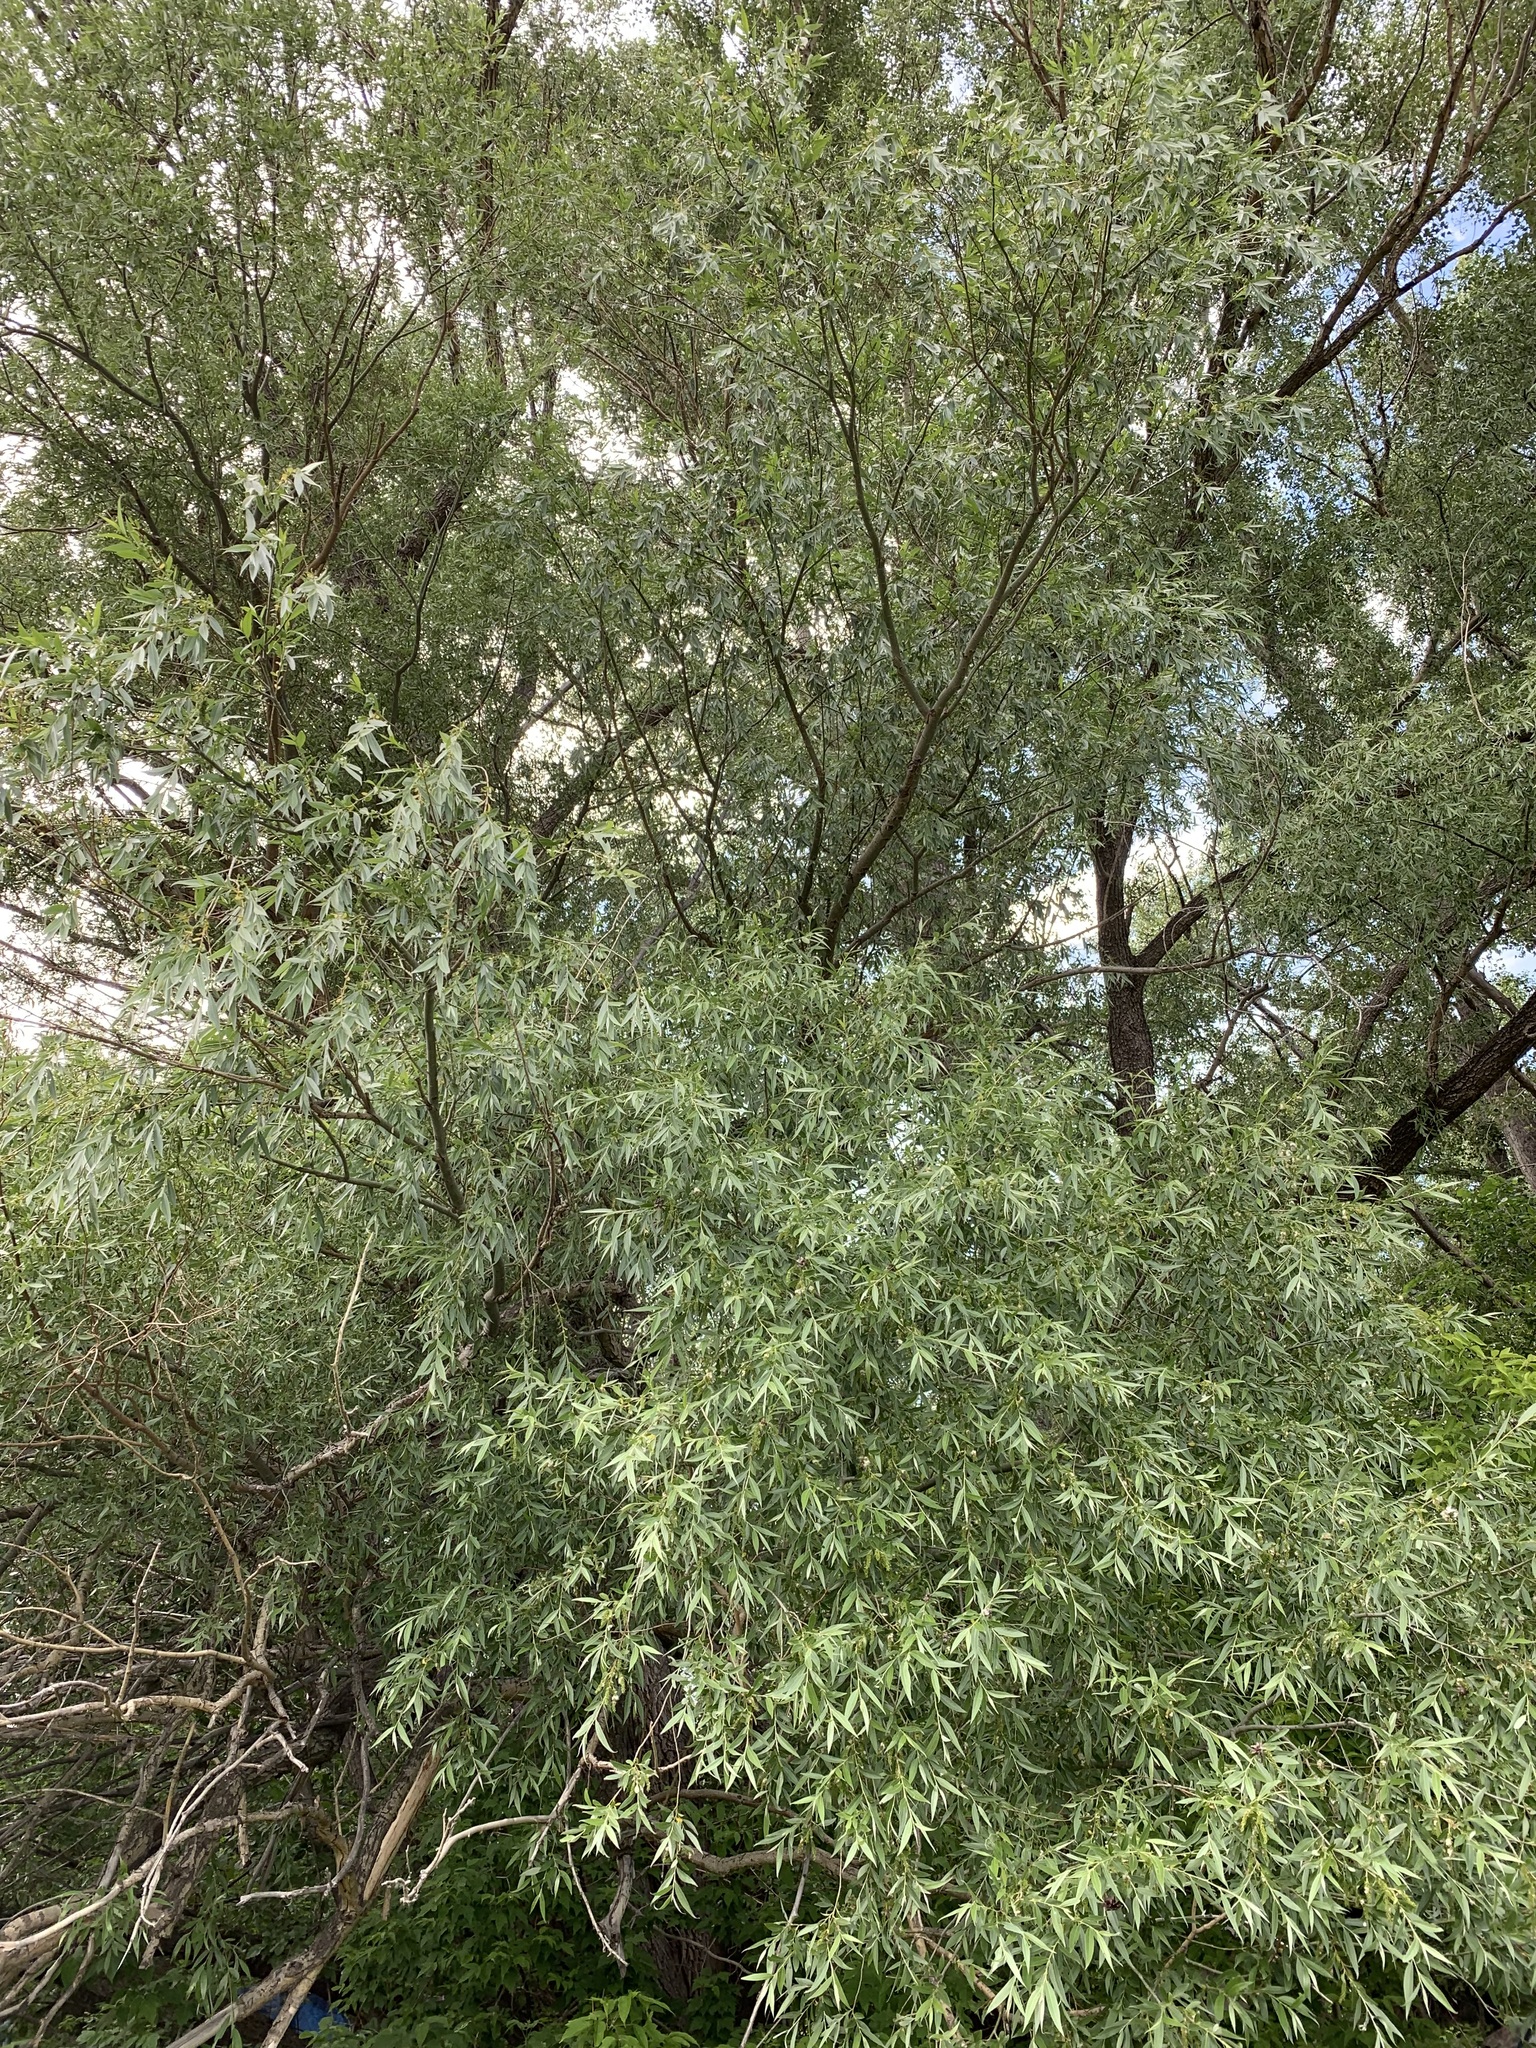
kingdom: Plantae
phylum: Tracheophyta
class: Magnoliopsida
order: Malpighiales
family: Salicaceae
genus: Salix
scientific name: Salix alba
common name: White willow
